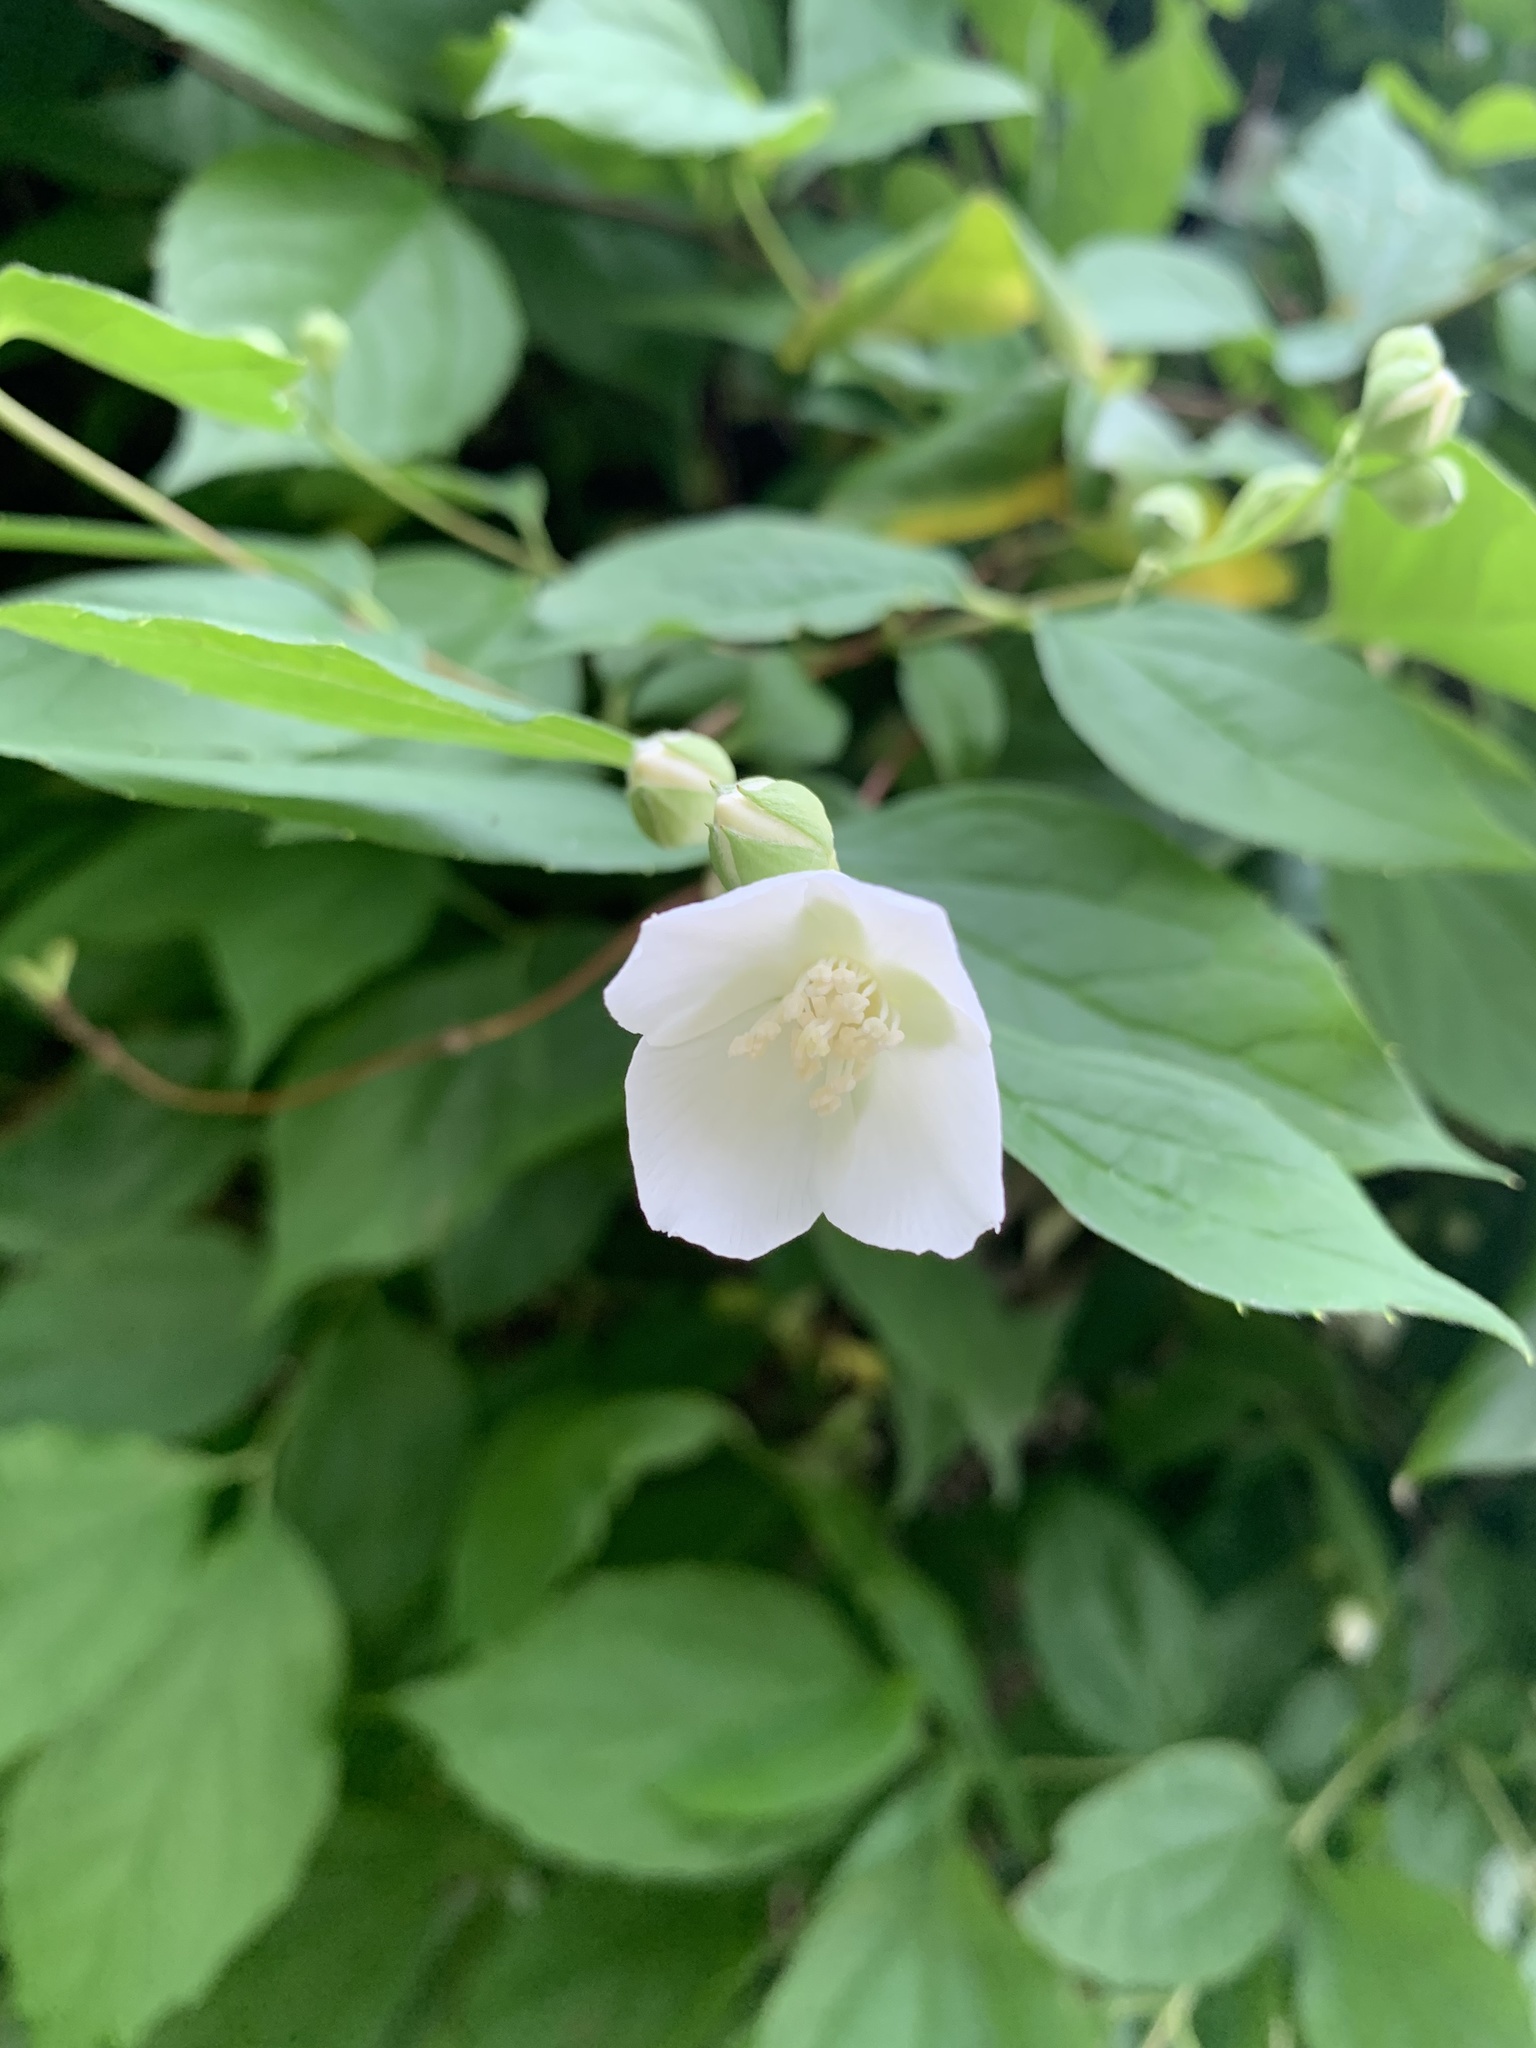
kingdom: Plantae
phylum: Tracheophyta
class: Magnoliopsida
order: Cornales
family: Hydrangeaceae
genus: Philadelphus
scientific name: Philadelphus coronarius
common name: Mock orange
